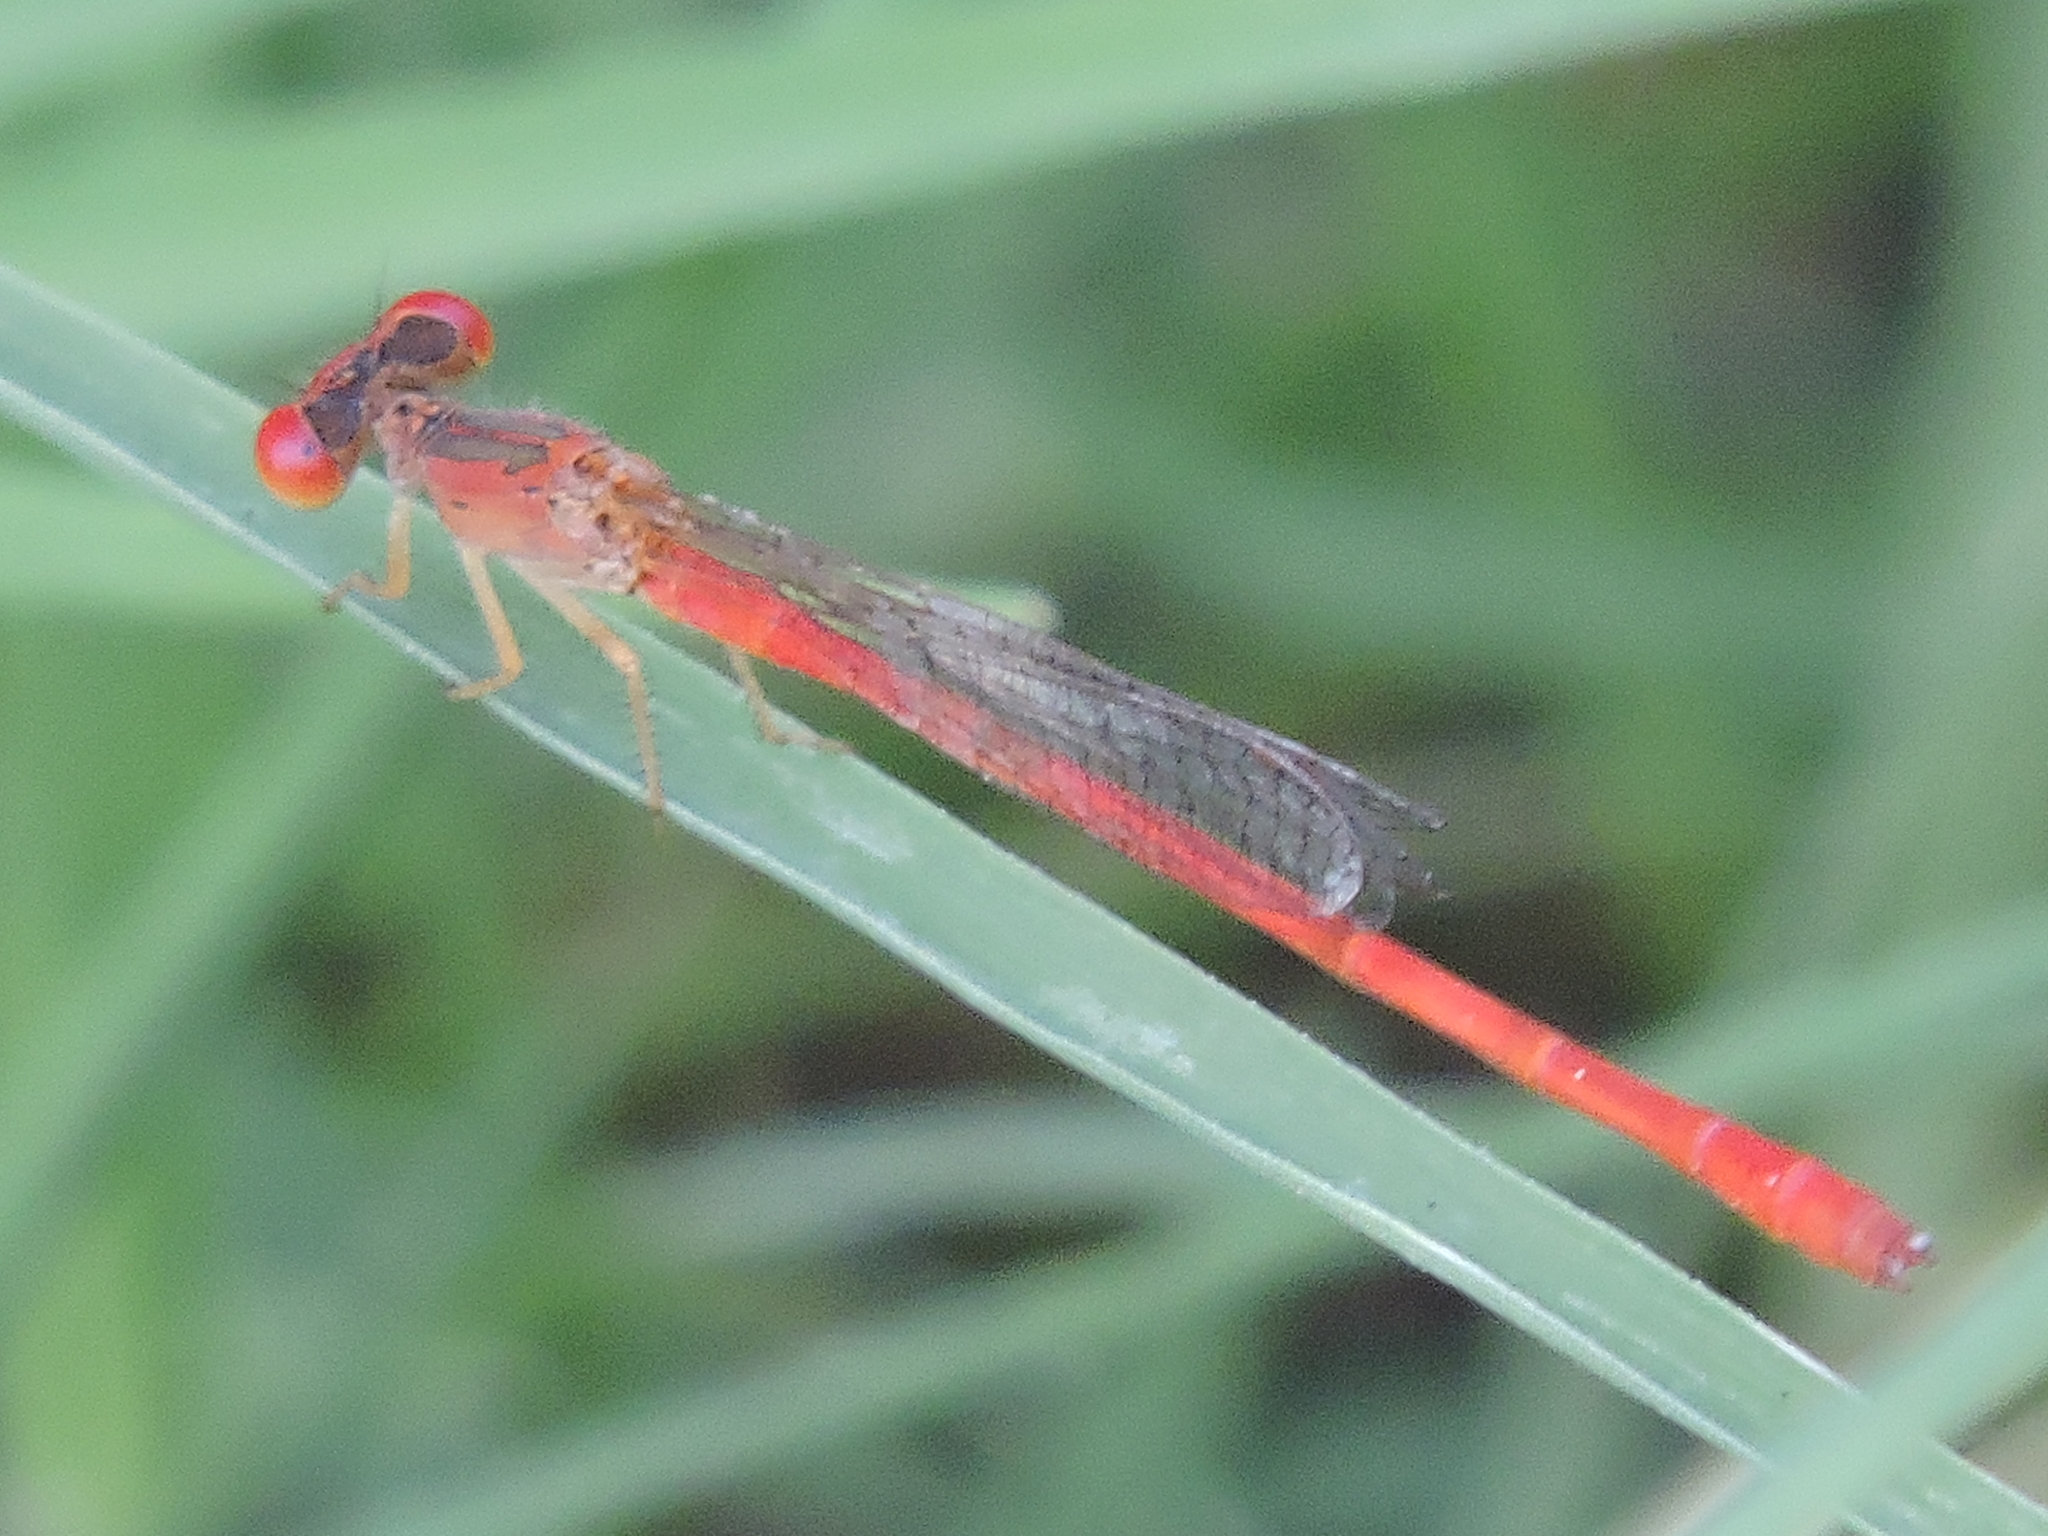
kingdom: Animalia
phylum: Arthropoda
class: Insecta
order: Odonata
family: Coenagrionidae
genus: Telebasis
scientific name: Telebasis salva
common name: Desert firetail
